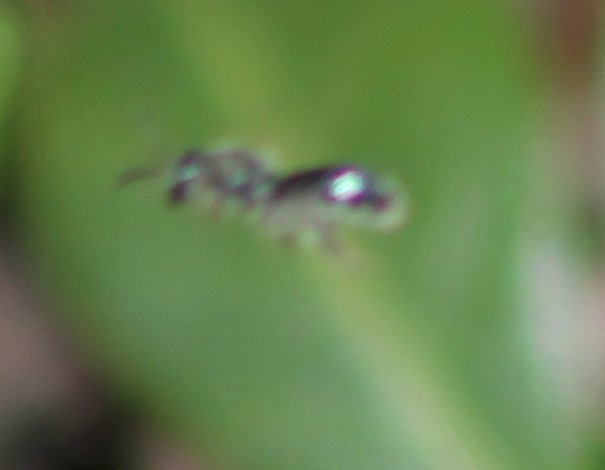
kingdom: Animalia
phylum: Arthropoda
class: Insecta
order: Hymenoptera
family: Halictidae
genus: Dialictus
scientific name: Dialictus
